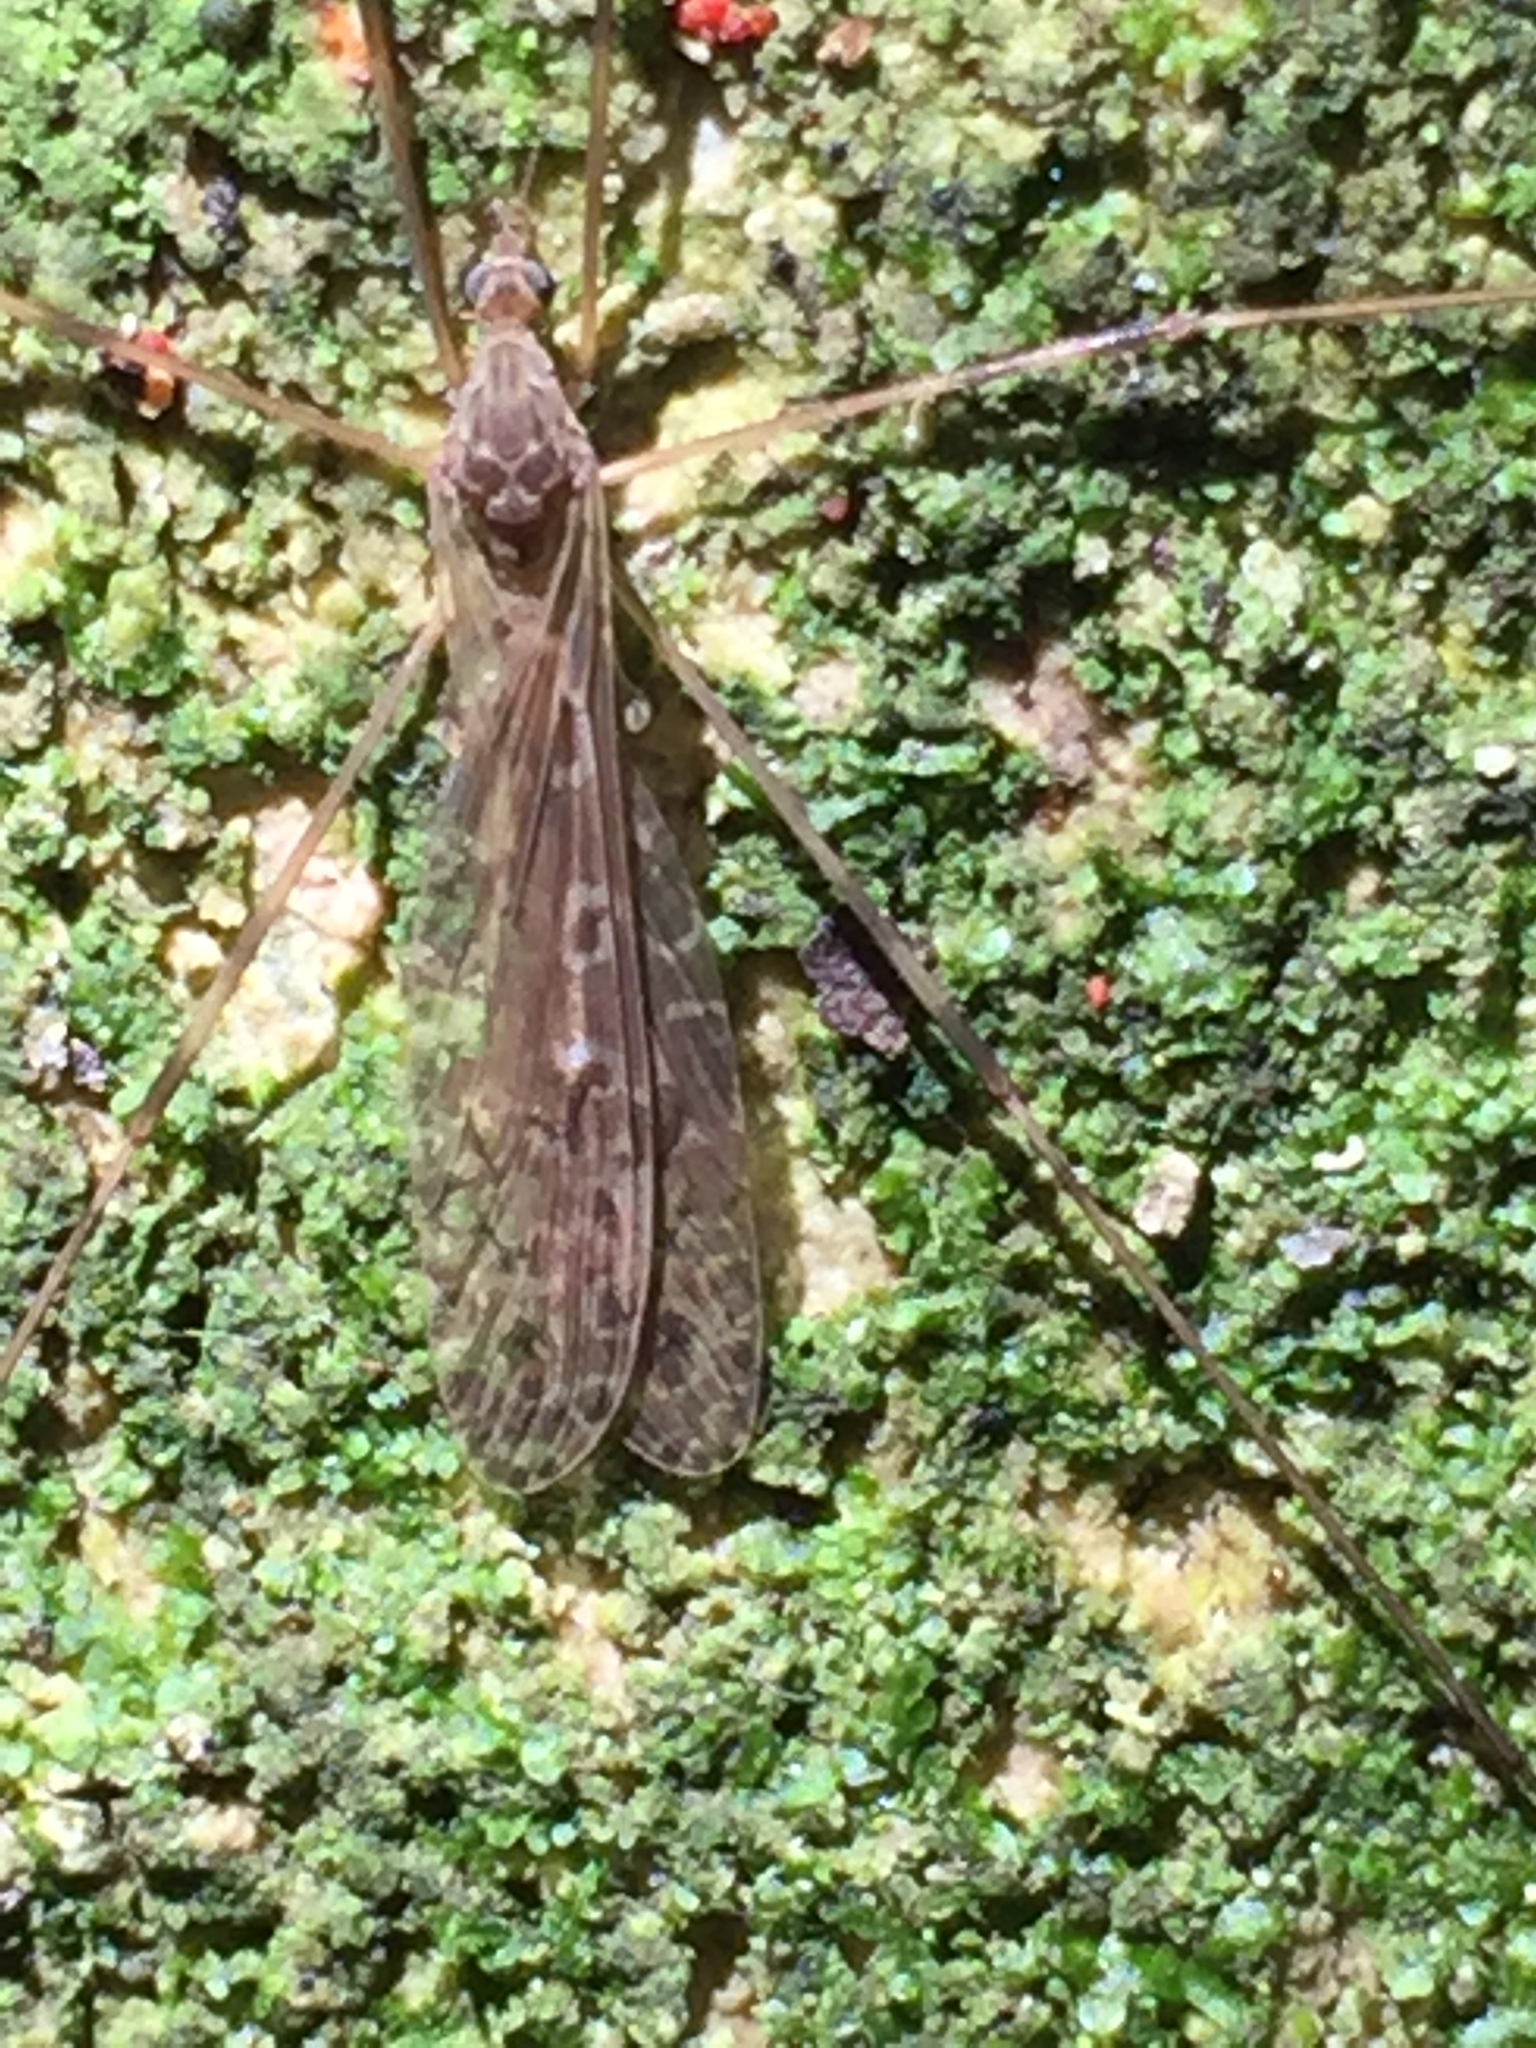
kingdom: Animalia
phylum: Arthropoda
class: Insecta
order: Diptera
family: Limoniidae
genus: Austrolimnophila
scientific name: Austrolimnophila crassipes
